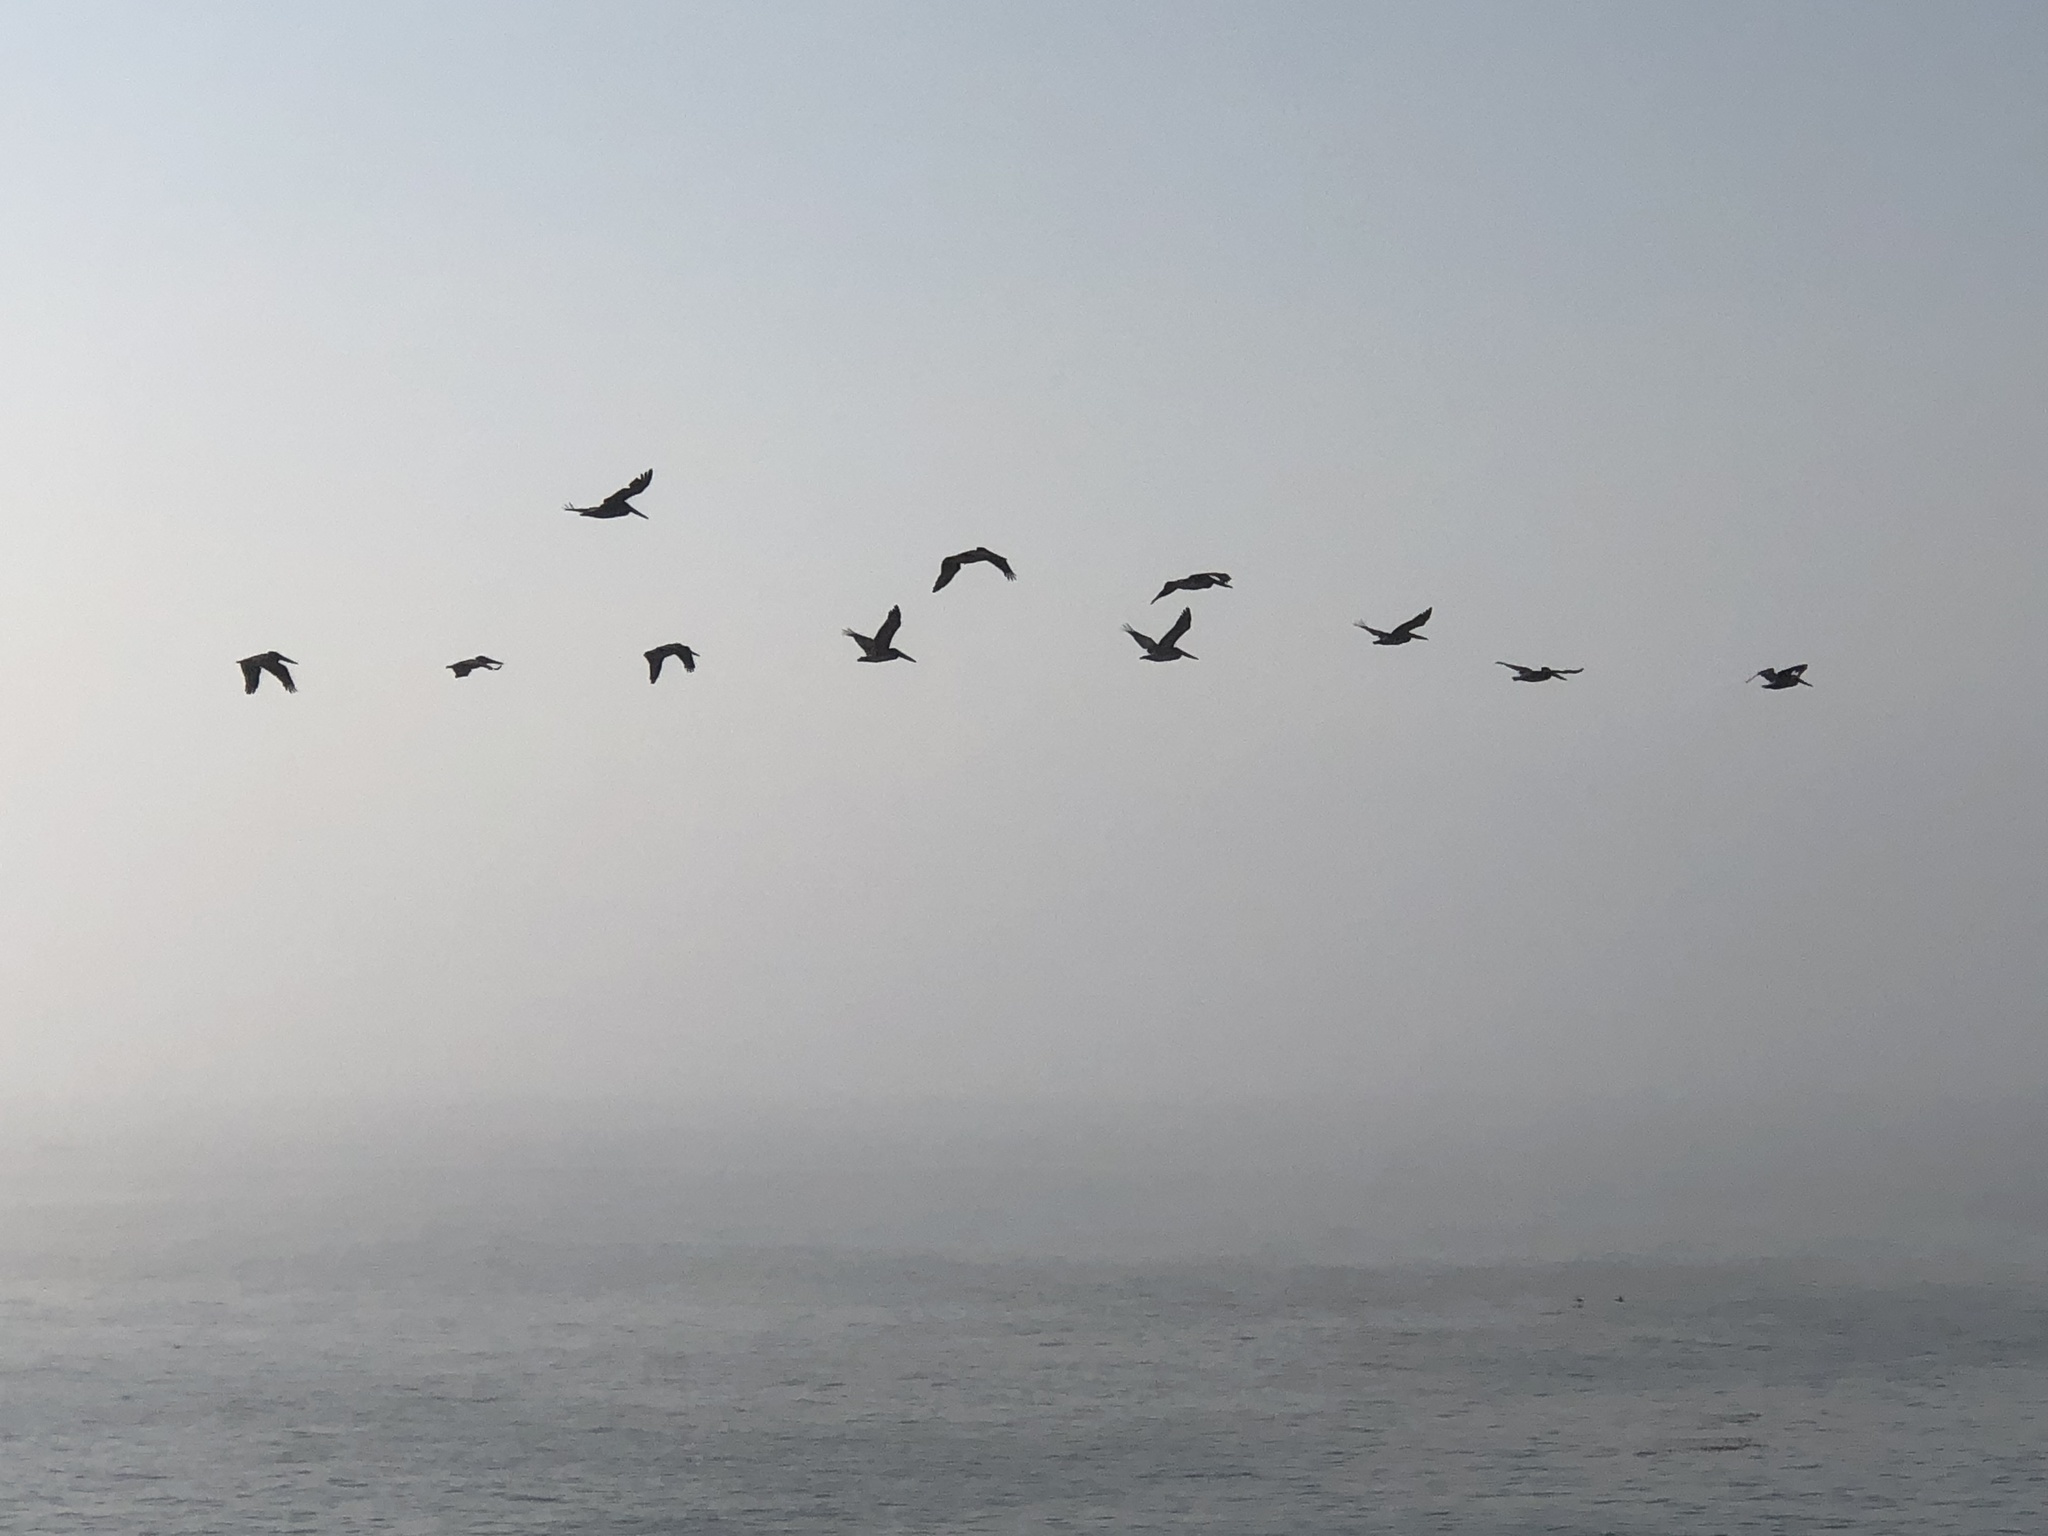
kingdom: Animalia
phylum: Chordata
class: Aves
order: Pelecaniformes
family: Pelecanidae
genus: Pelecanus
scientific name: Pelecanus occidentalis
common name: Brown pelican
